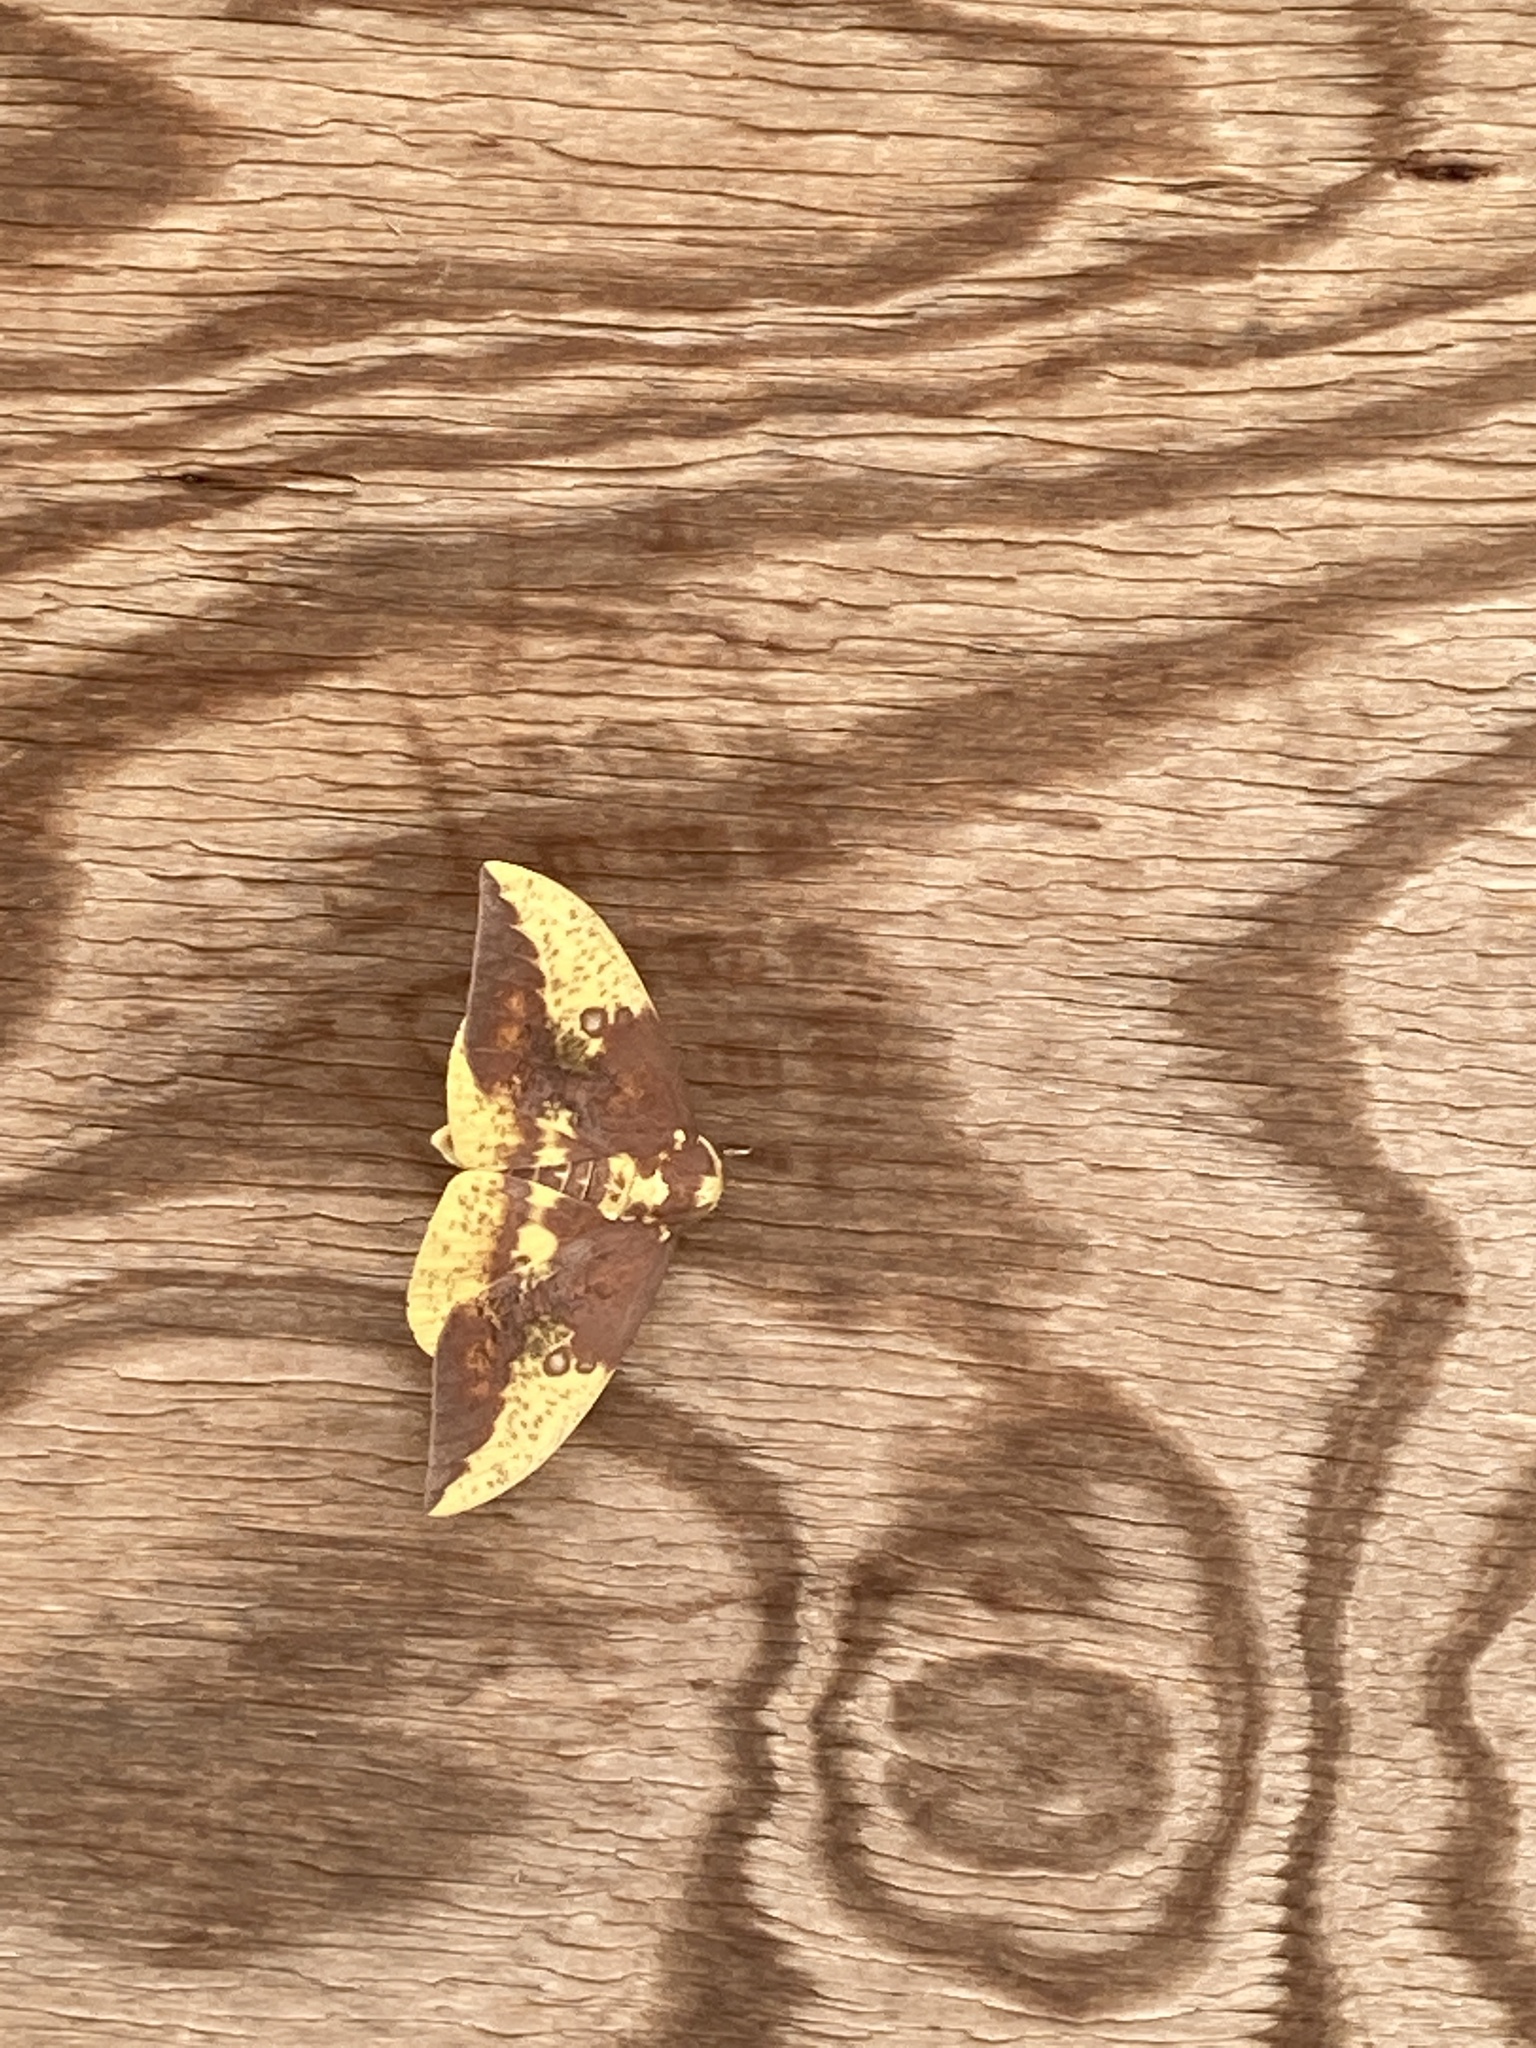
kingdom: Animalia
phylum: Arthropoda
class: Insecta
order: Lepidoptera
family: Saturniidae
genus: Eacles
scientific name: Eacles imperialis
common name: Imperial moth
